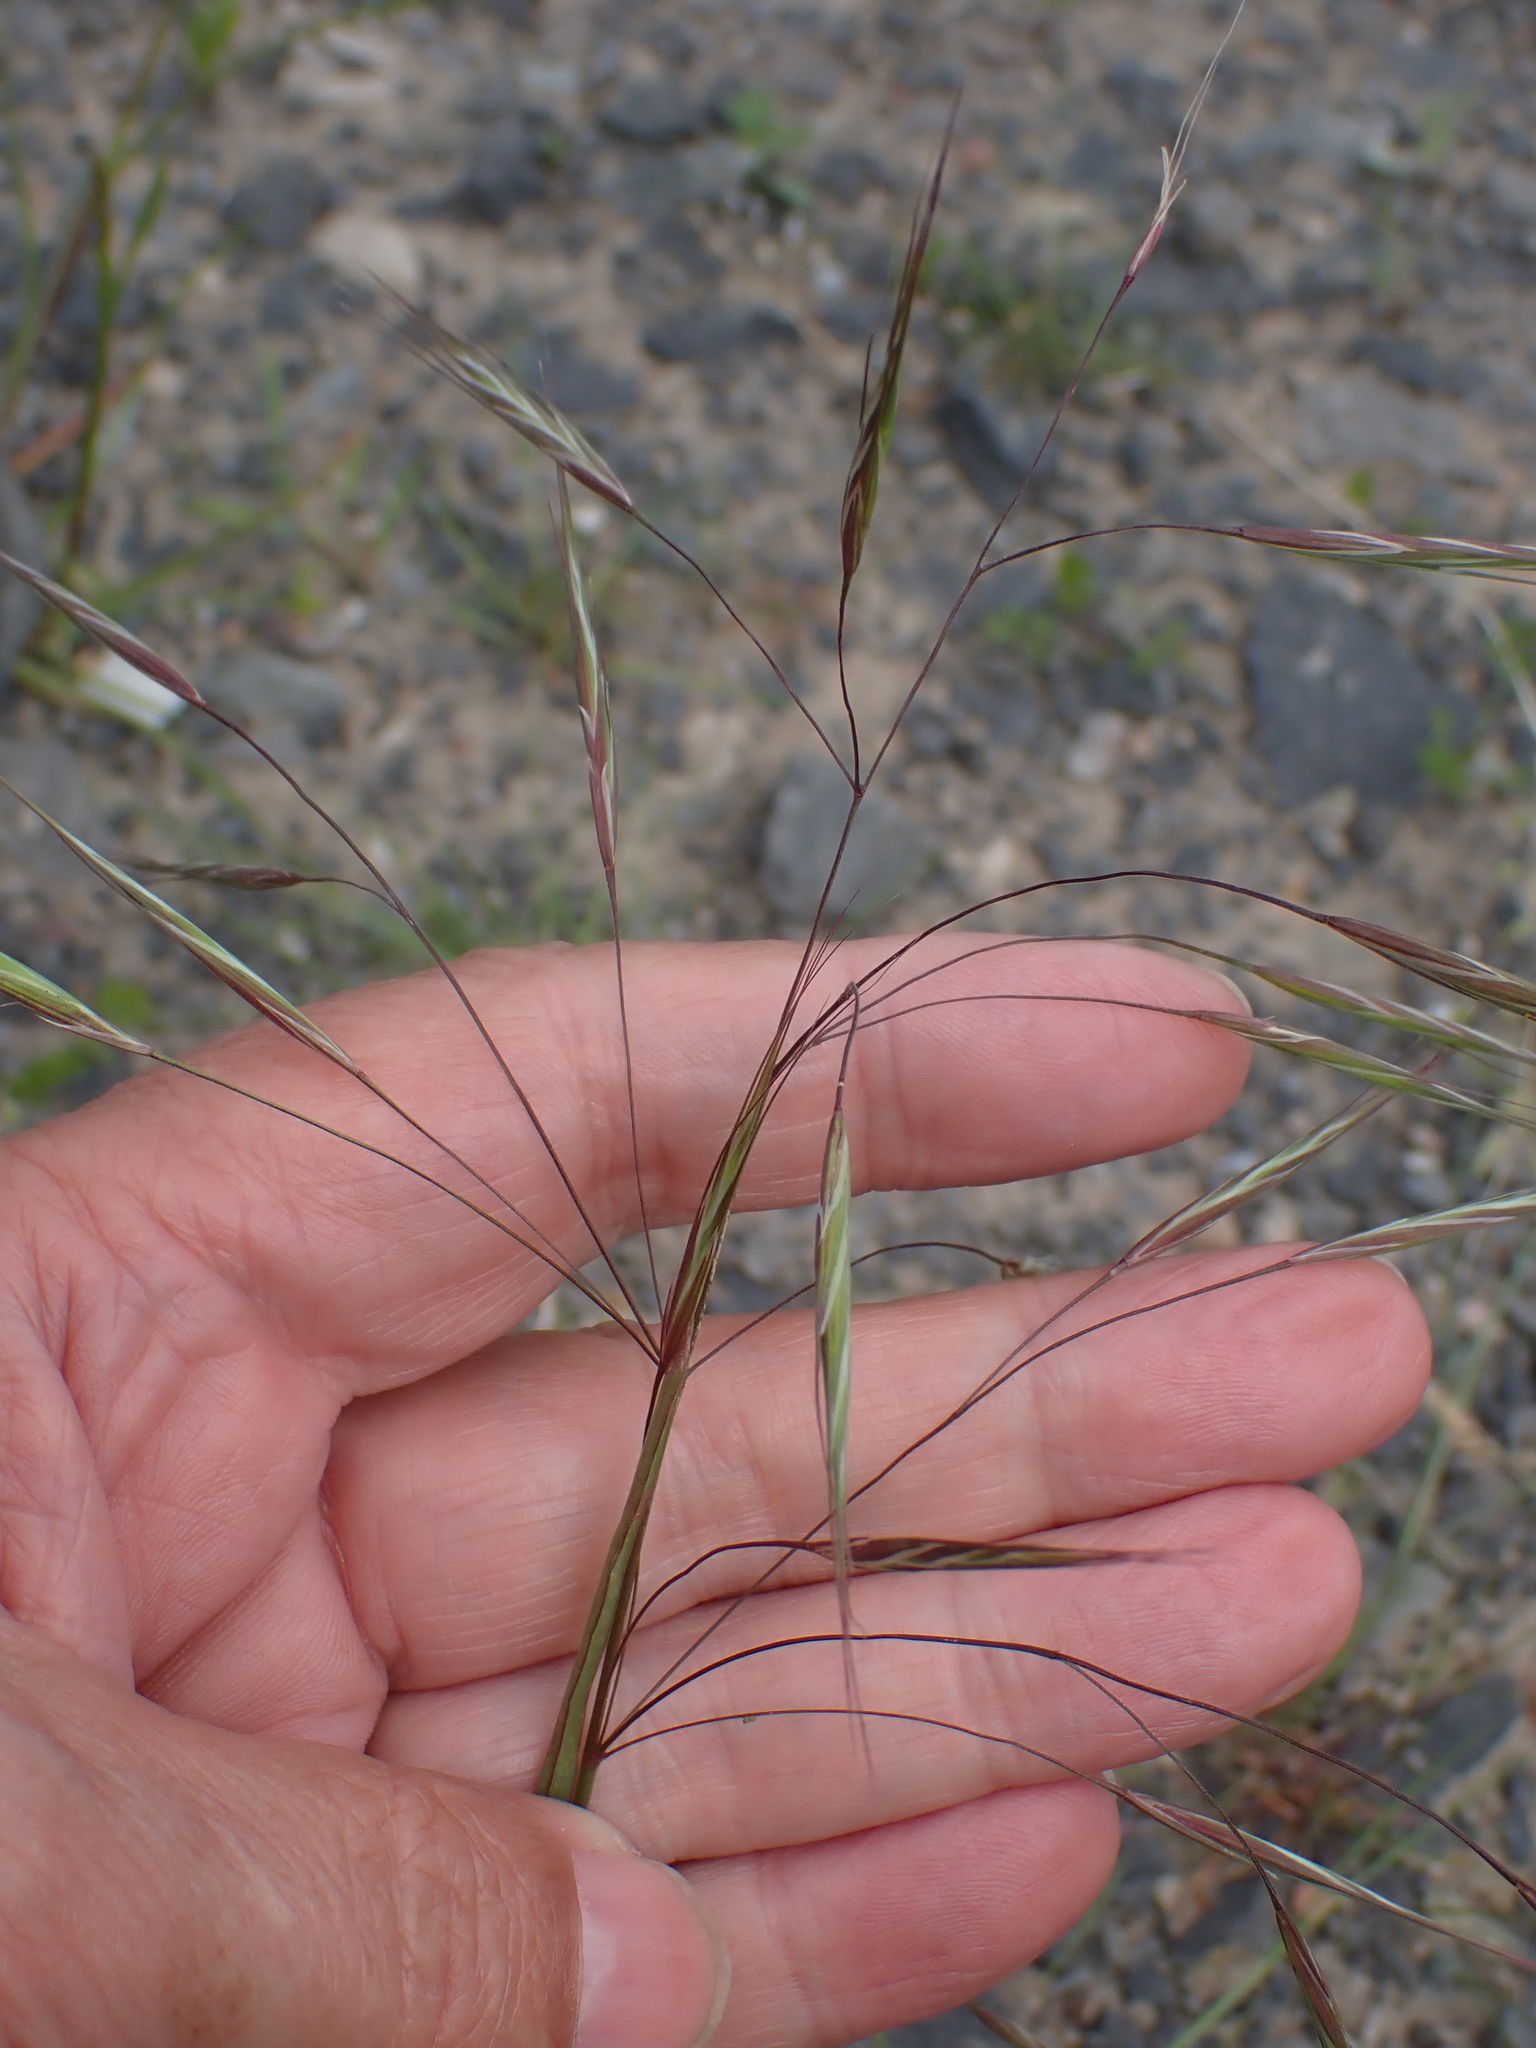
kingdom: Plantae
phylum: Tracheophyta
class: Liliopsida
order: Poales
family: Poaceae
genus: Bromus
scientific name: Bromus sterilis
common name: Poverty brome
